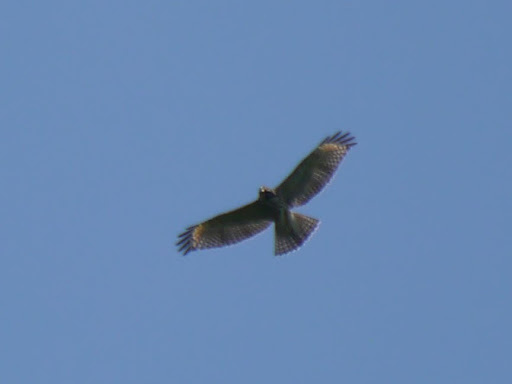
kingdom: Animalia
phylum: Chordata
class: Aves
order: Accipitriformes
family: Accipitridae
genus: Buteo
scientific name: Buteo lineatus
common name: Red-shouldered hawk
